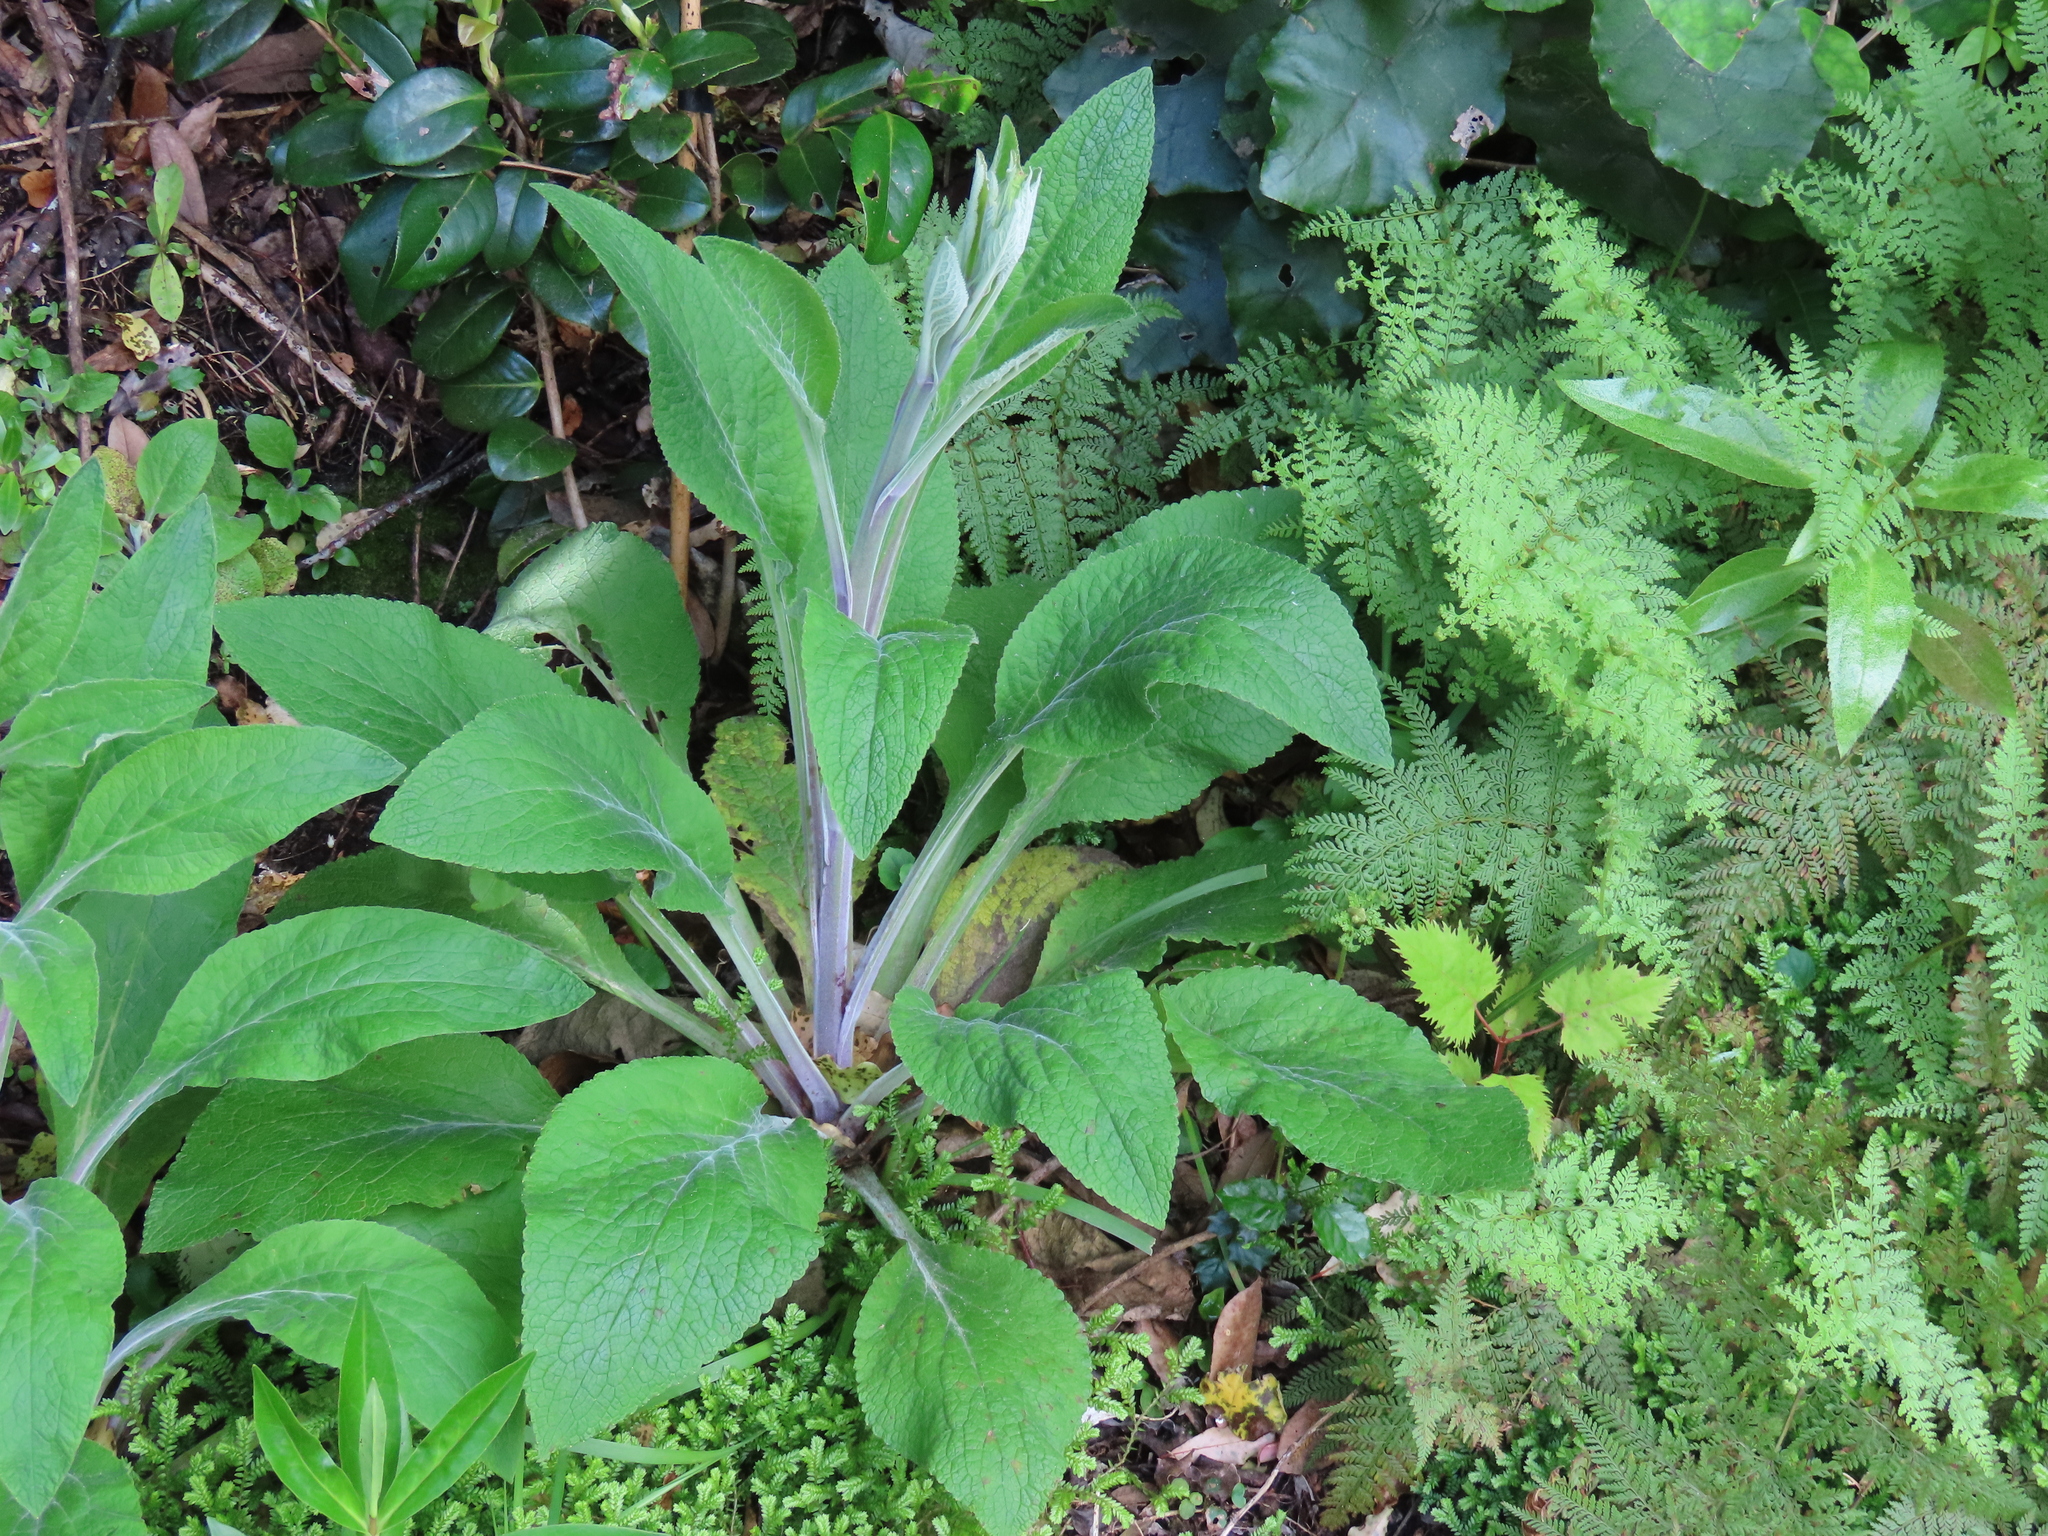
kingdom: Plantae
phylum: Tracheophyta
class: Magnoliopsida
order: Lamiales
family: Plantaginaceae
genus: Digitalis
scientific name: Digitalis purpurea
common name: Foxglove
